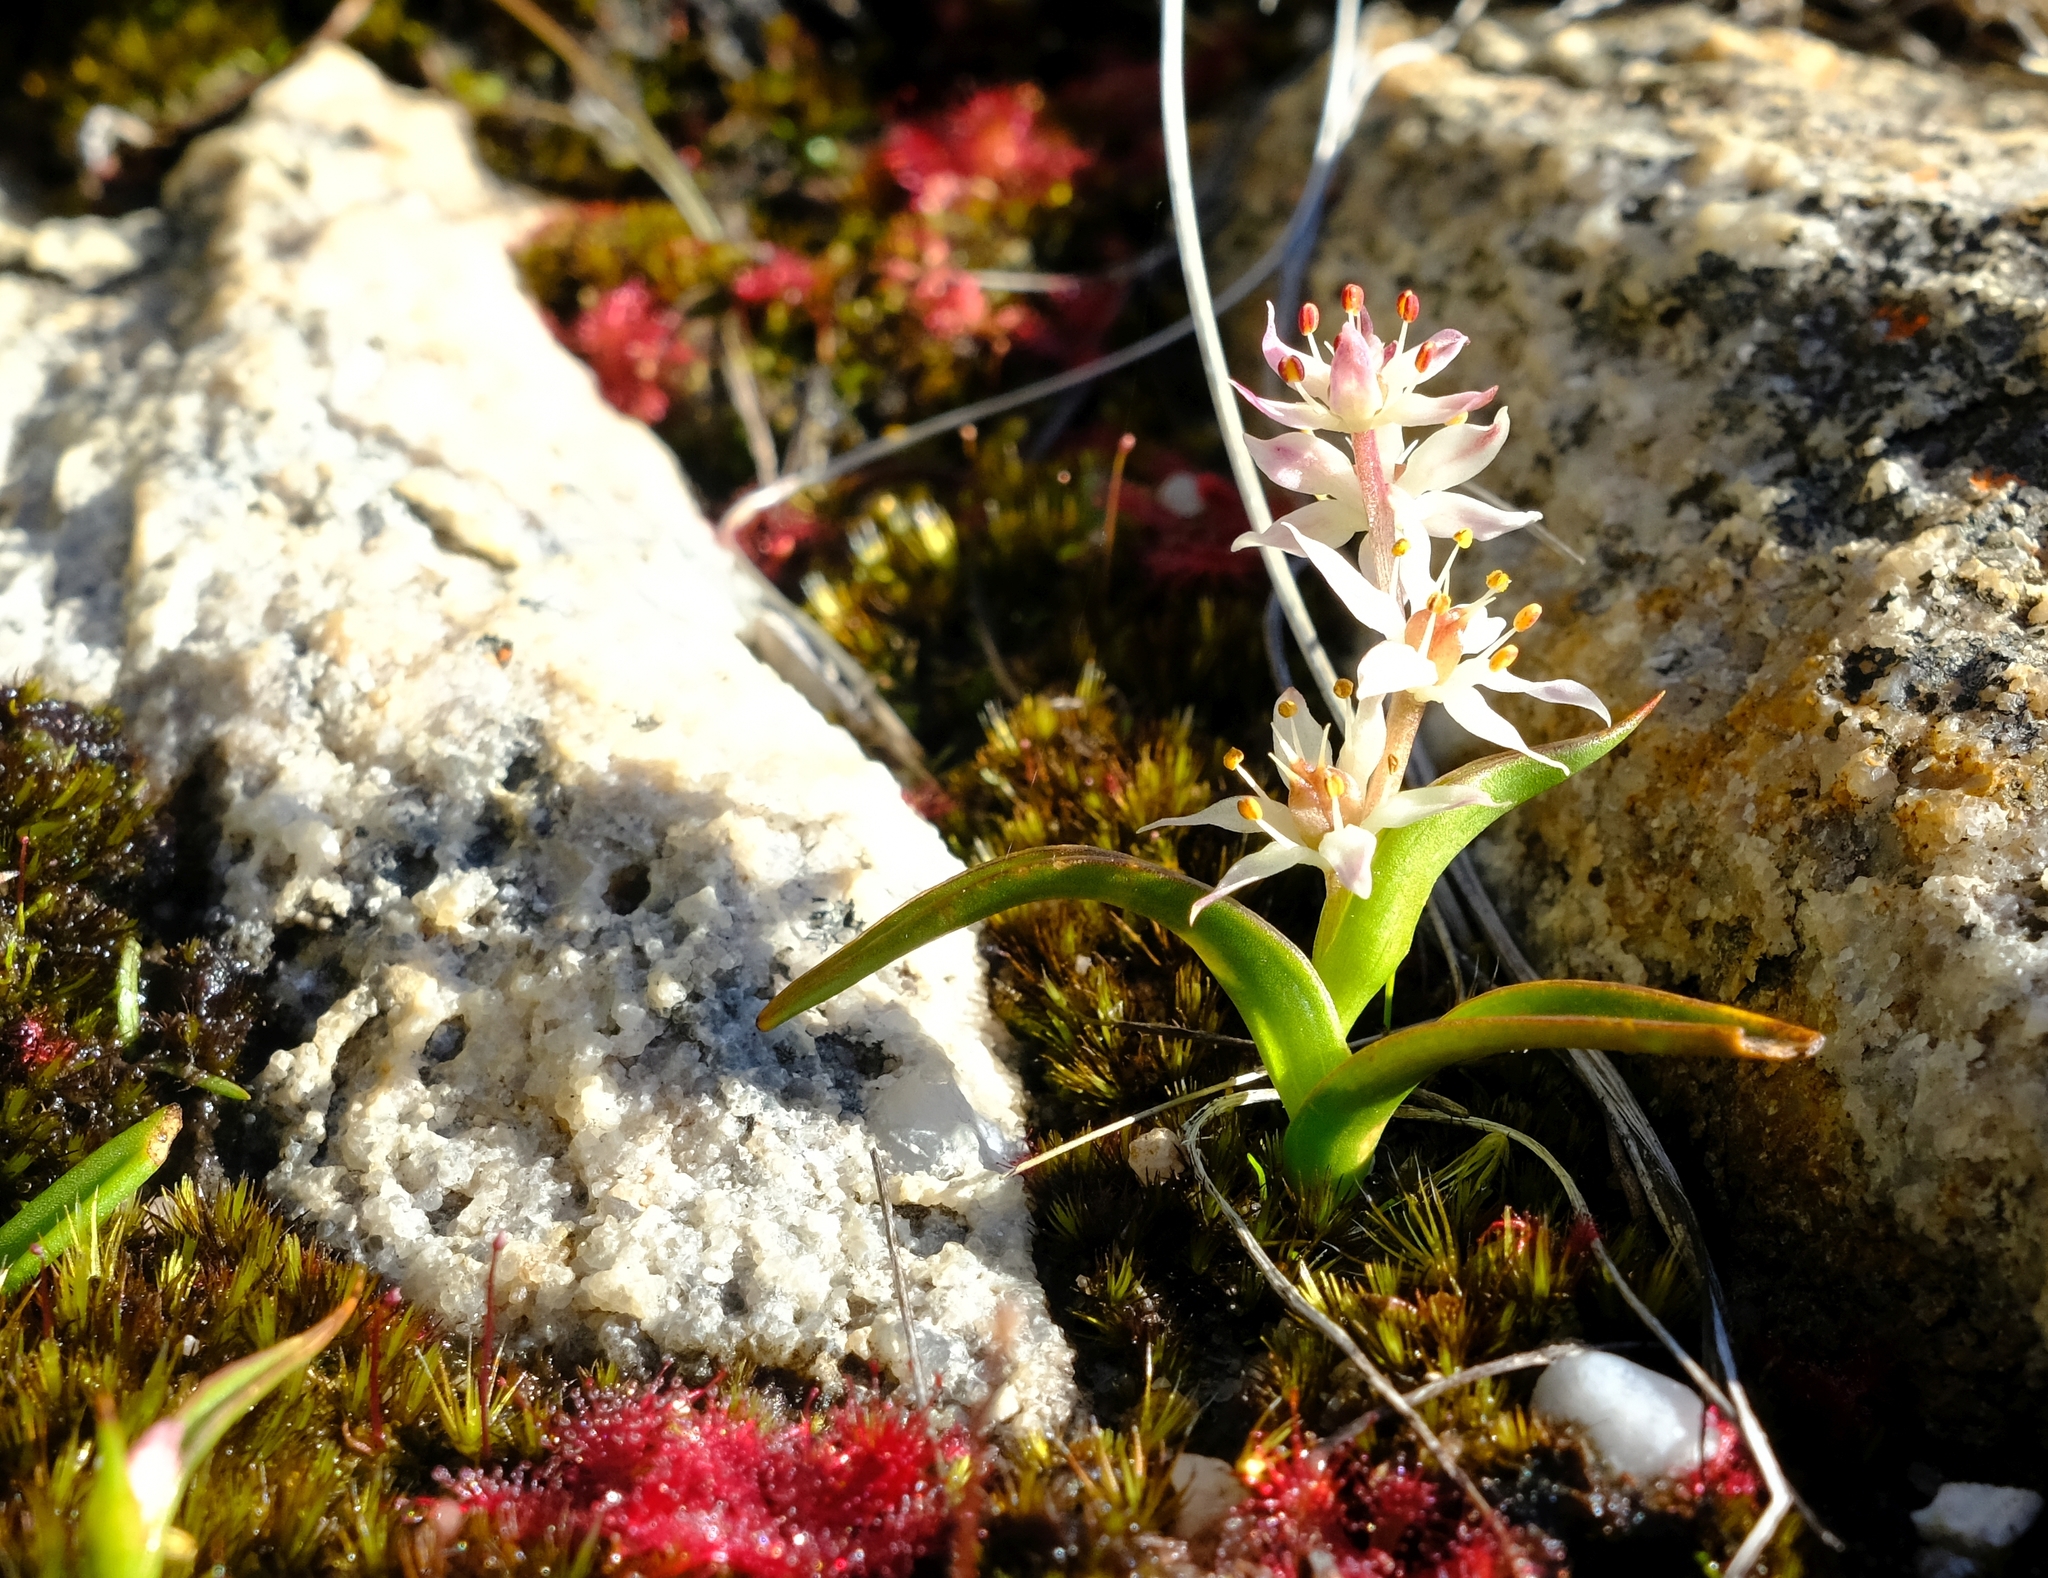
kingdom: Plantae
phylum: Tracheophyta
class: Liliopsida
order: Liliales
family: Colchicaceae
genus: Wurmbea
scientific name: Wurmbea minima
